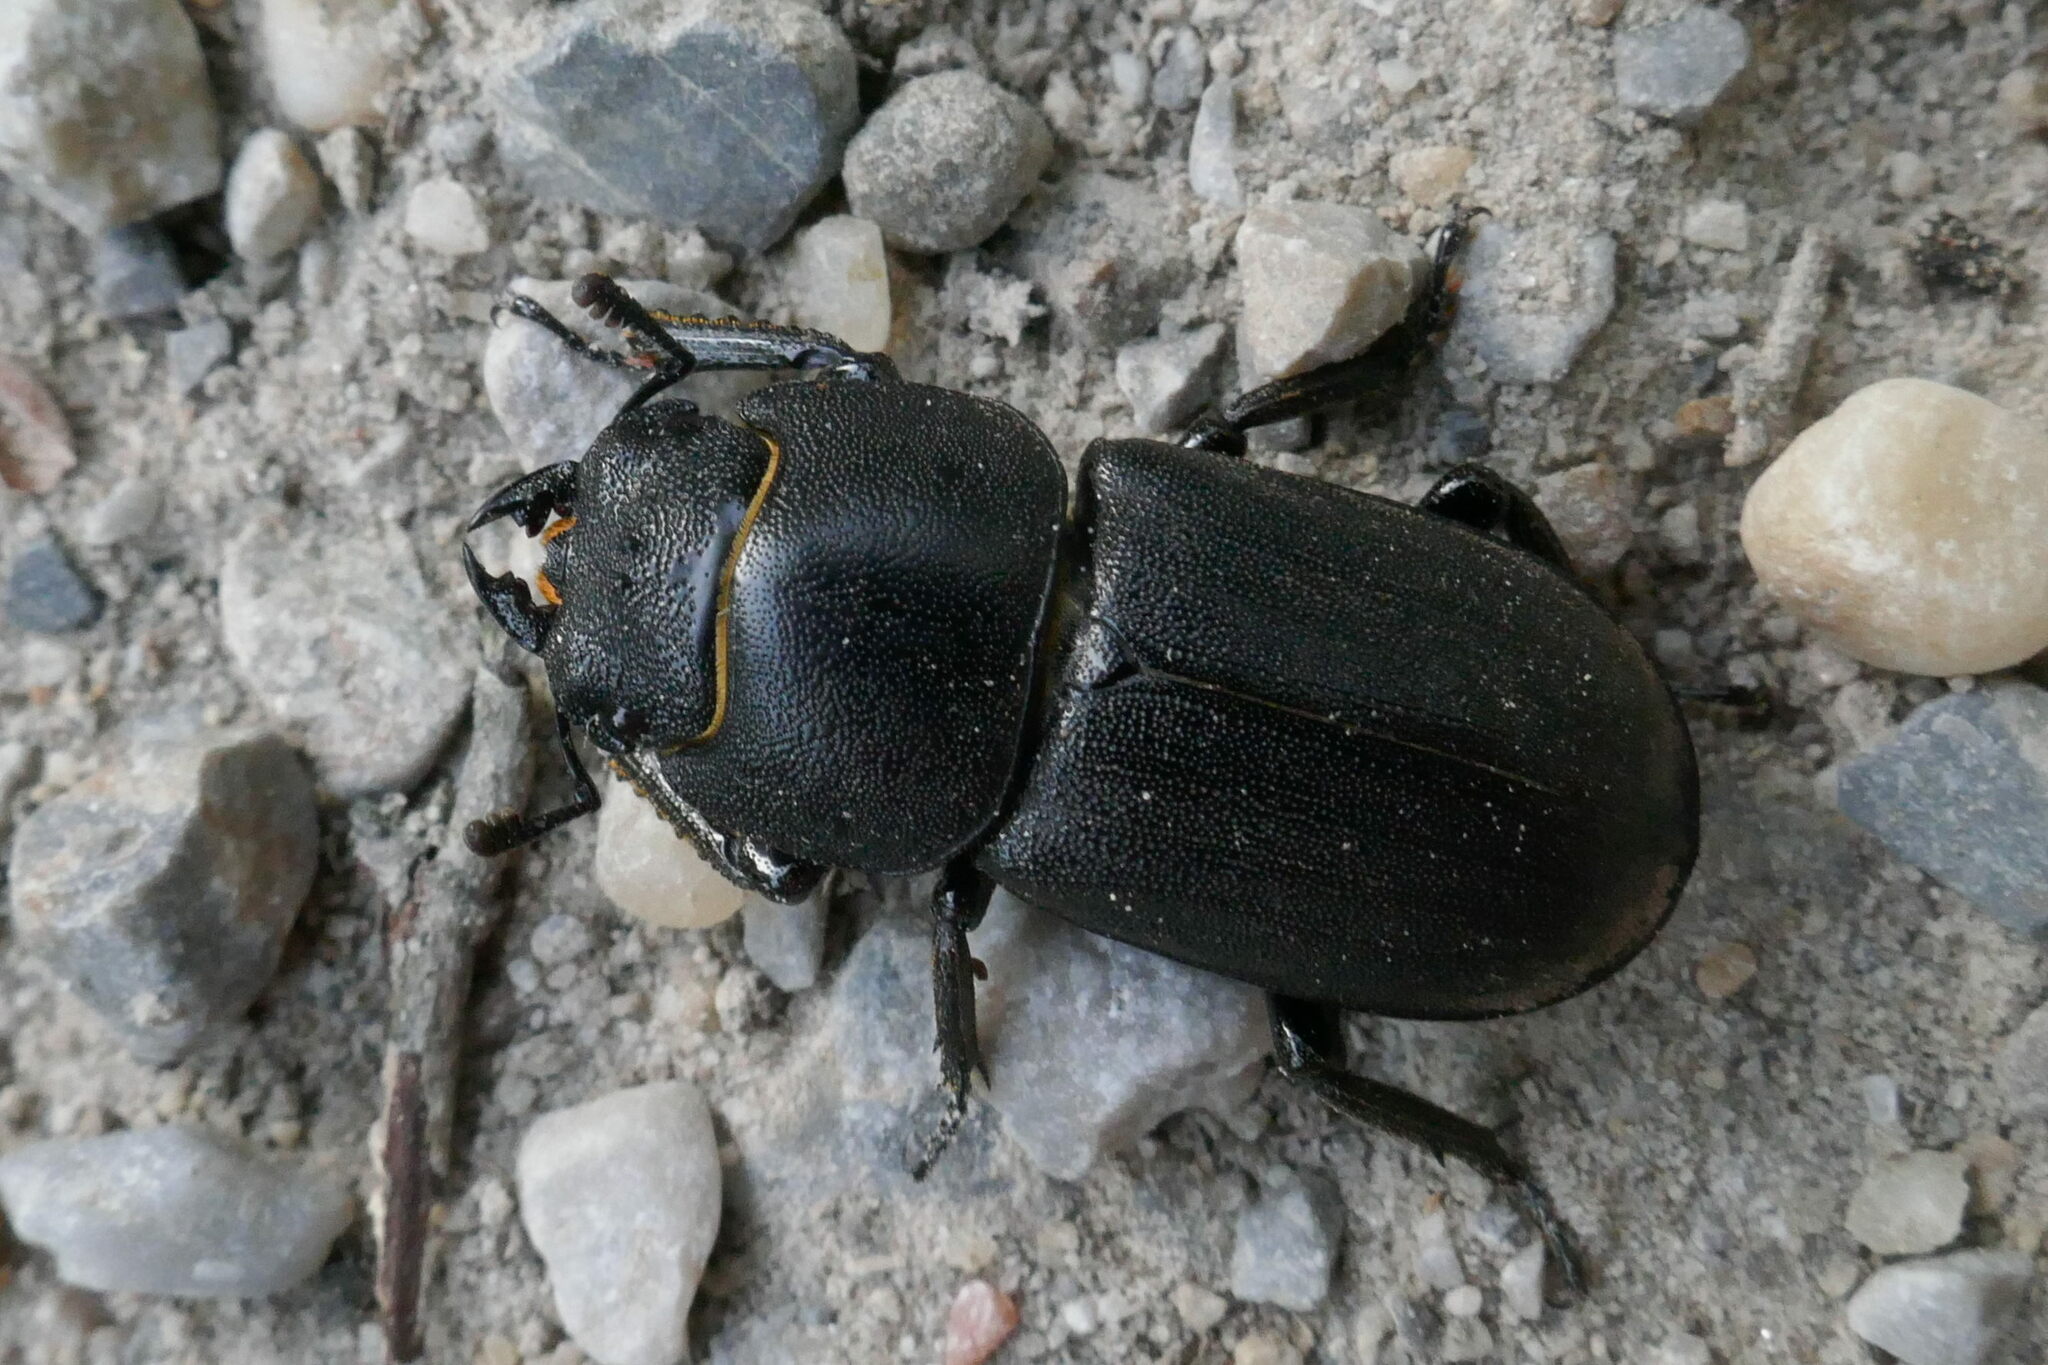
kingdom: Animalia
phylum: Arthropoda
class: Insecta
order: Coleoptera
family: Lucanidae
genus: Dorcus
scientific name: Dorcus parallelipipedus
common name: Lesser stag beetle
